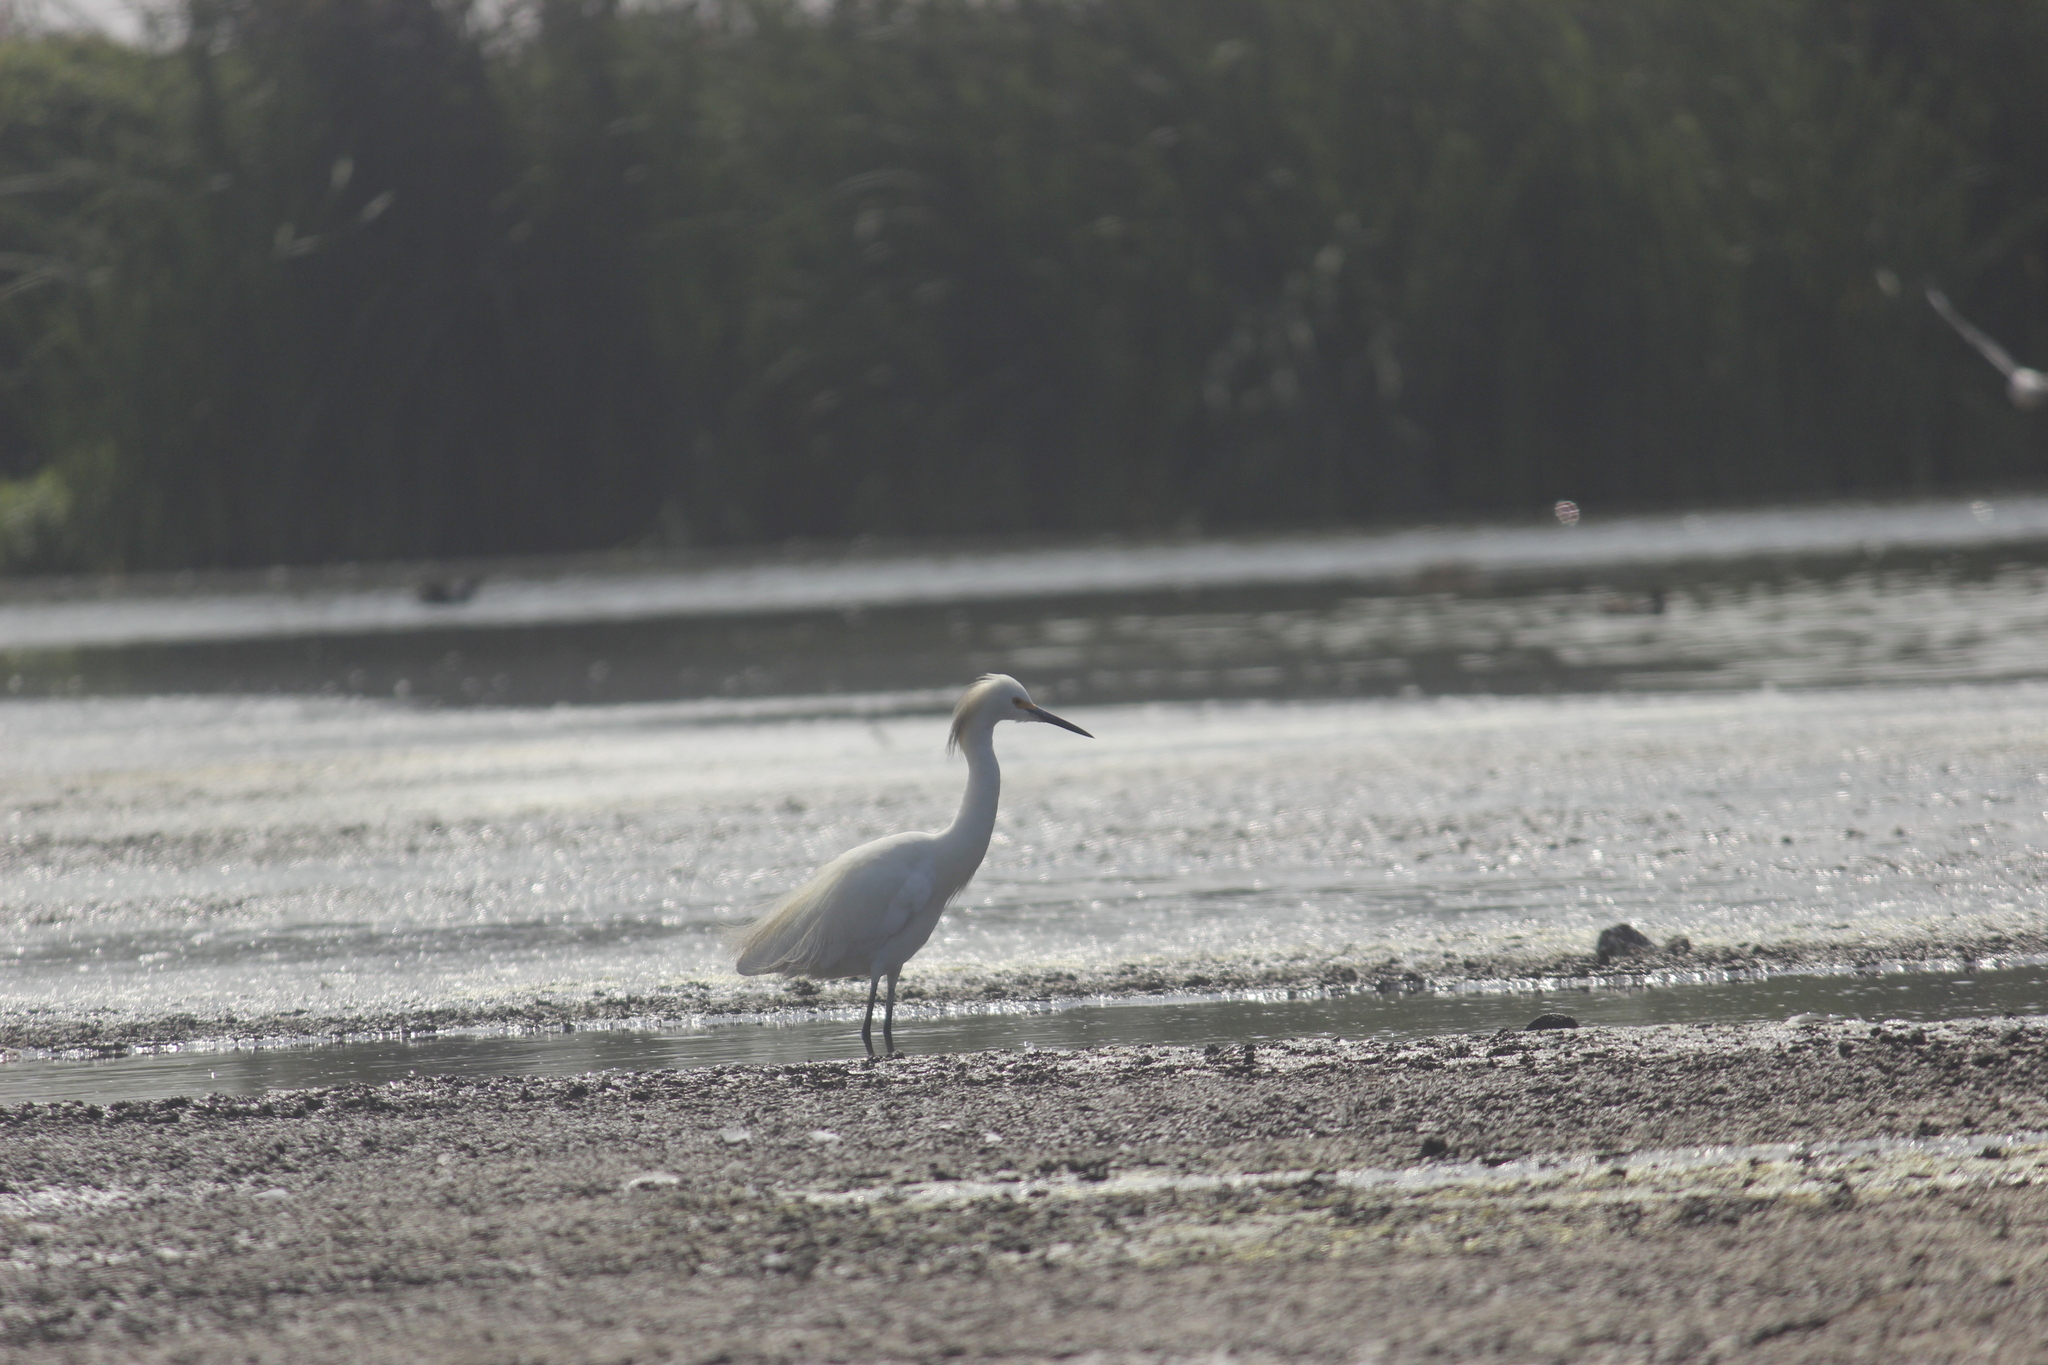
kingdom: Animalia
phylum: Chordata
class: Aves
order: Pelecaniformes
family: Ardeidae
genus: Egretta
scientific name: Egretta thula
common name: Snowy egret
